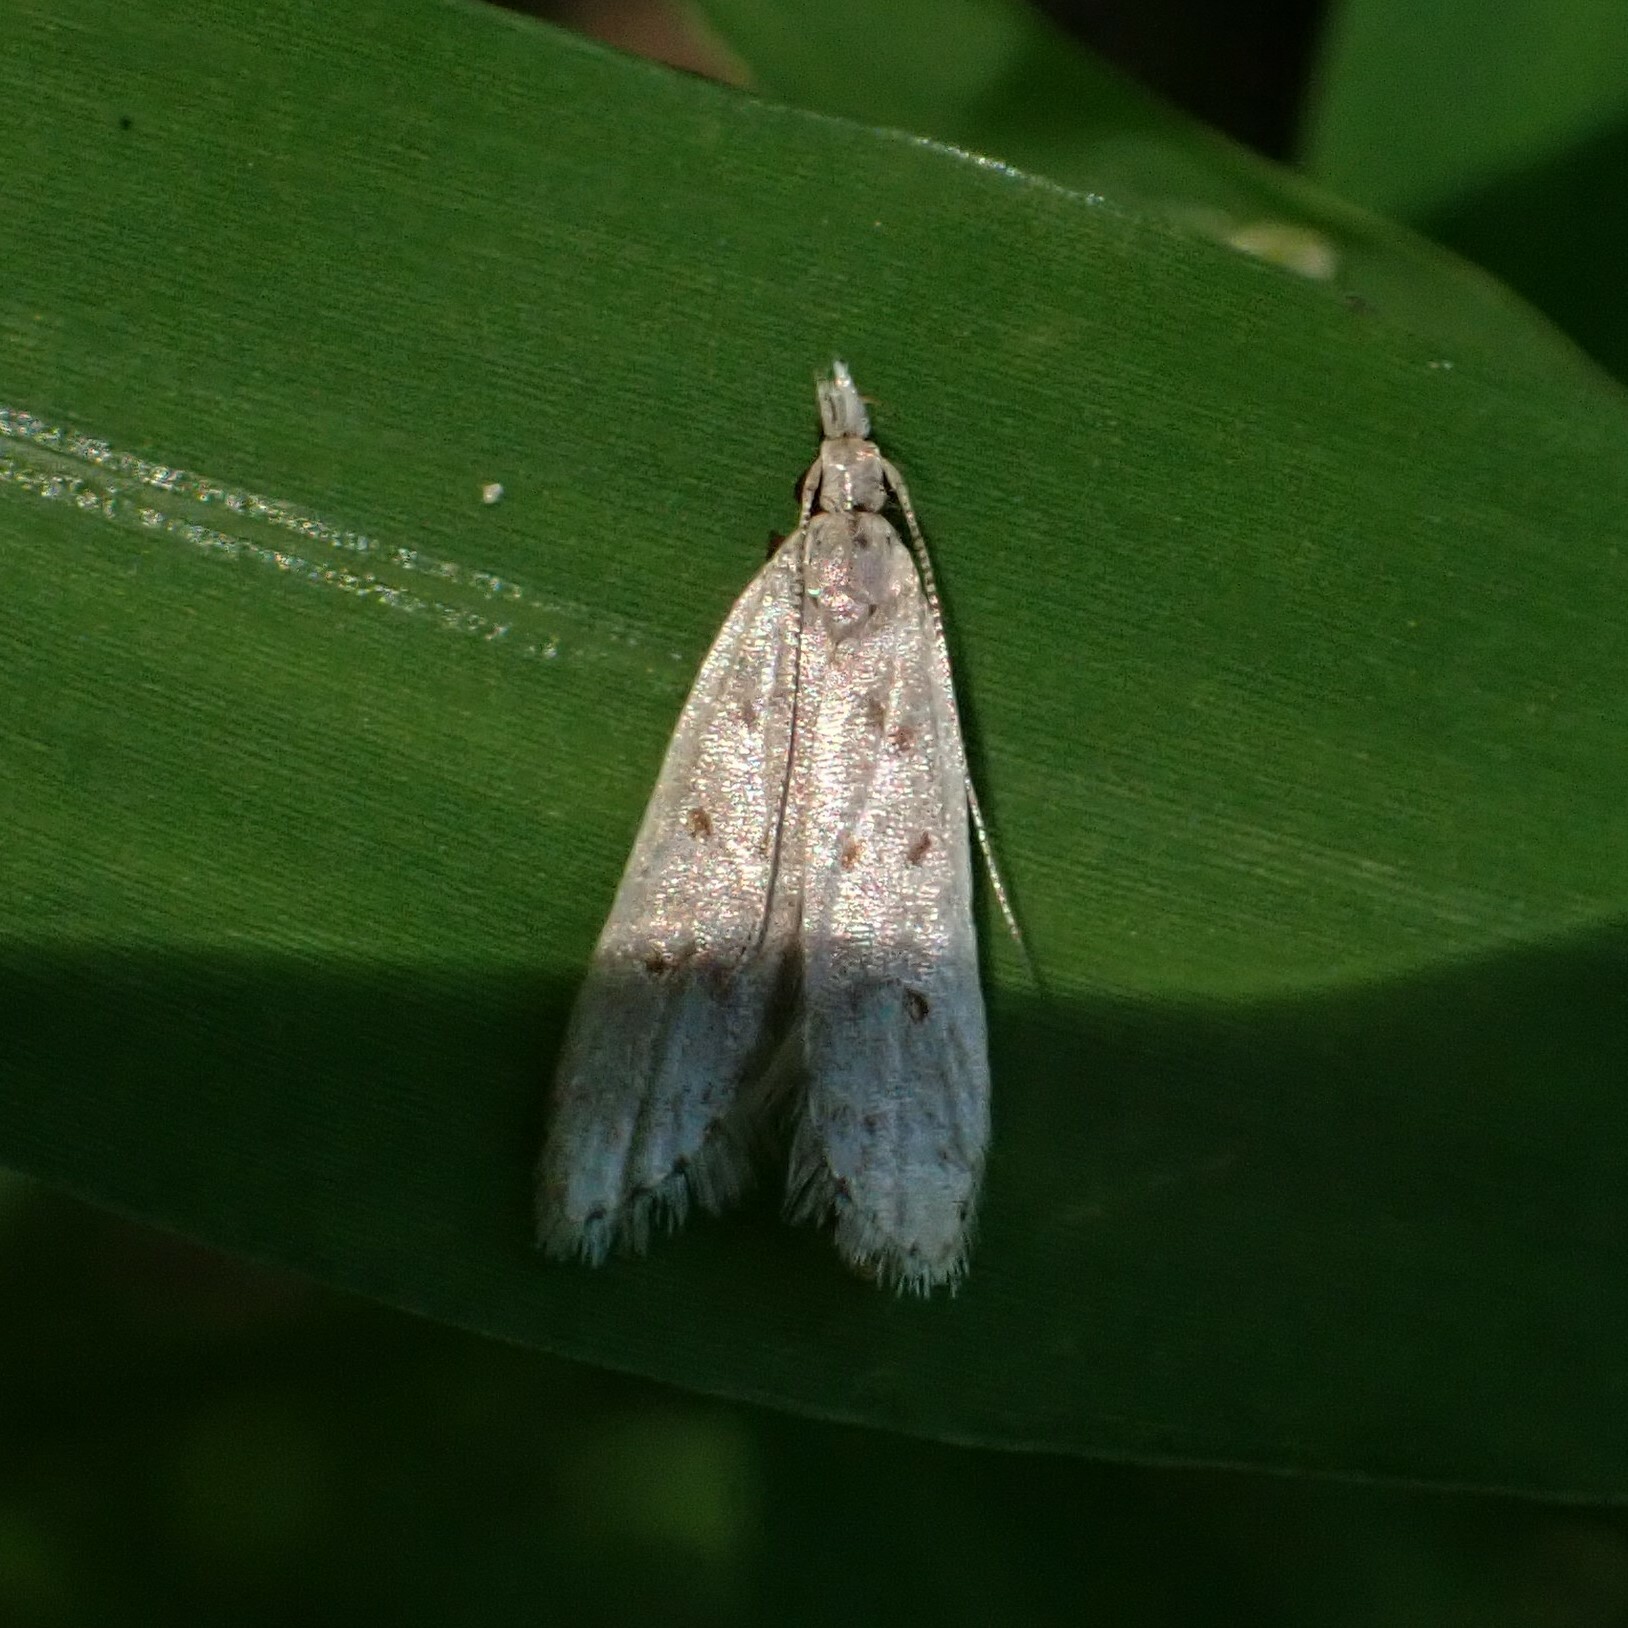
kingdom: Animalia
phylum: Arthropoda
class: Insecta
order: Lepidoptera
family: Gelechiidae
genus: Dichomeris
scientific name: Dichomeris punctidiscellus
